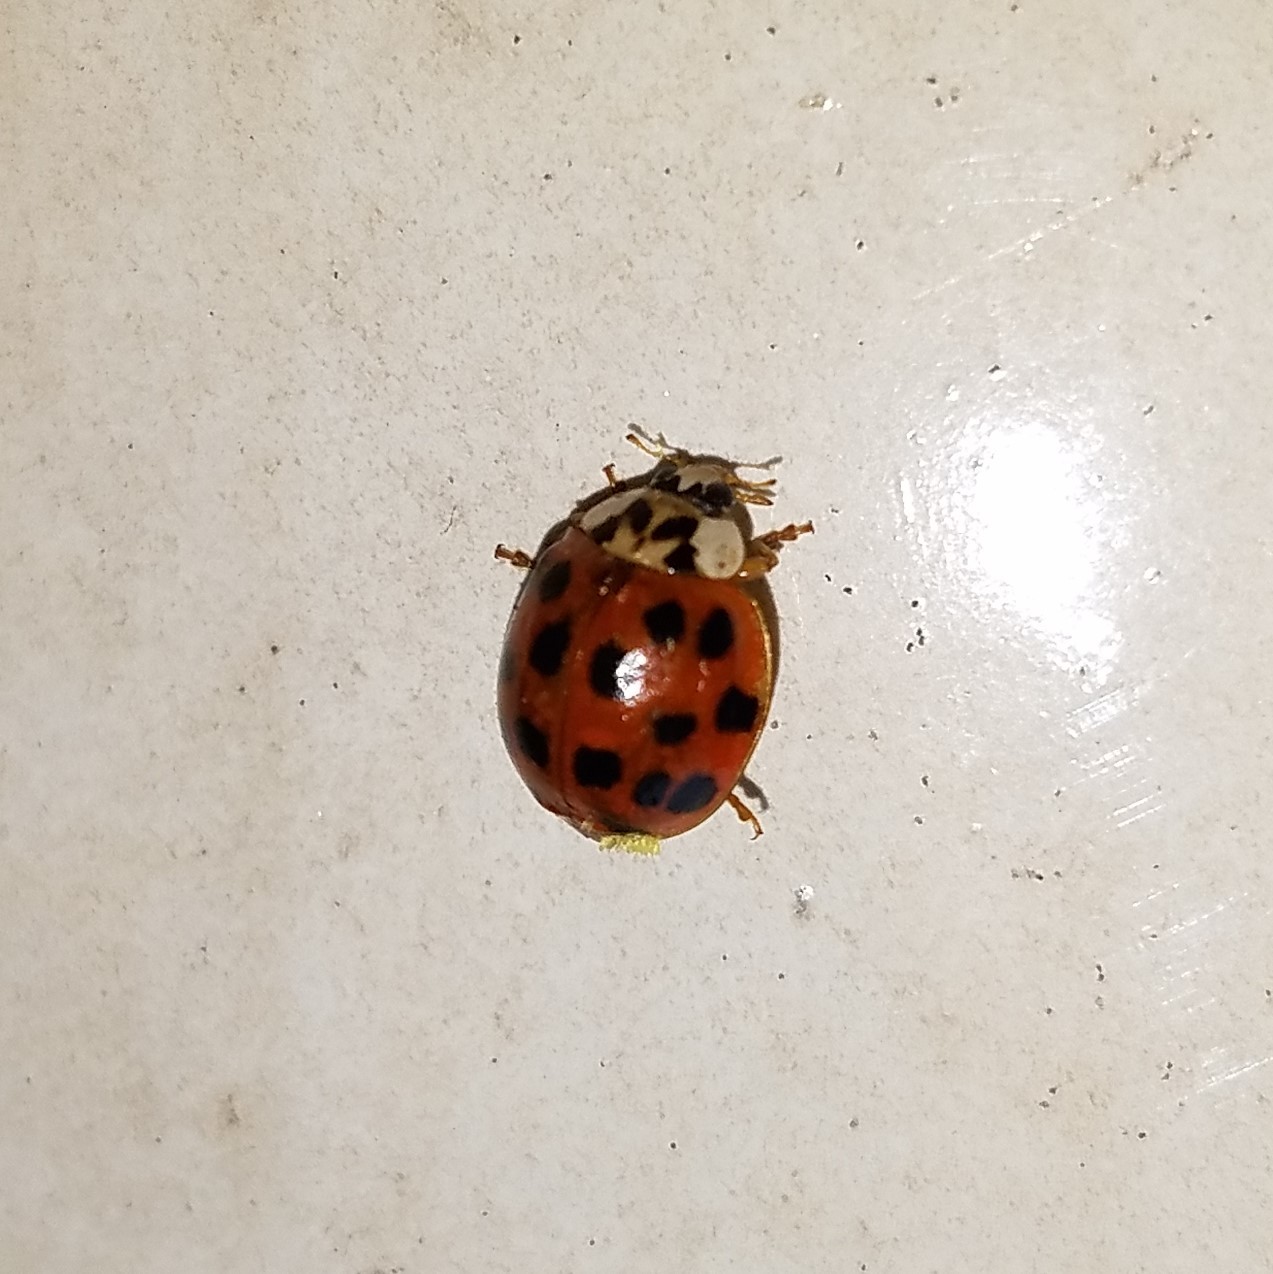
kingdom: Animalia
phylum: Arthropoda
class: Insecta
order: Coleoptera
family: Coccinellidae
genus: Harmonia
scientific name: Harmonia axyridis
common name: Harlequin ladybird
